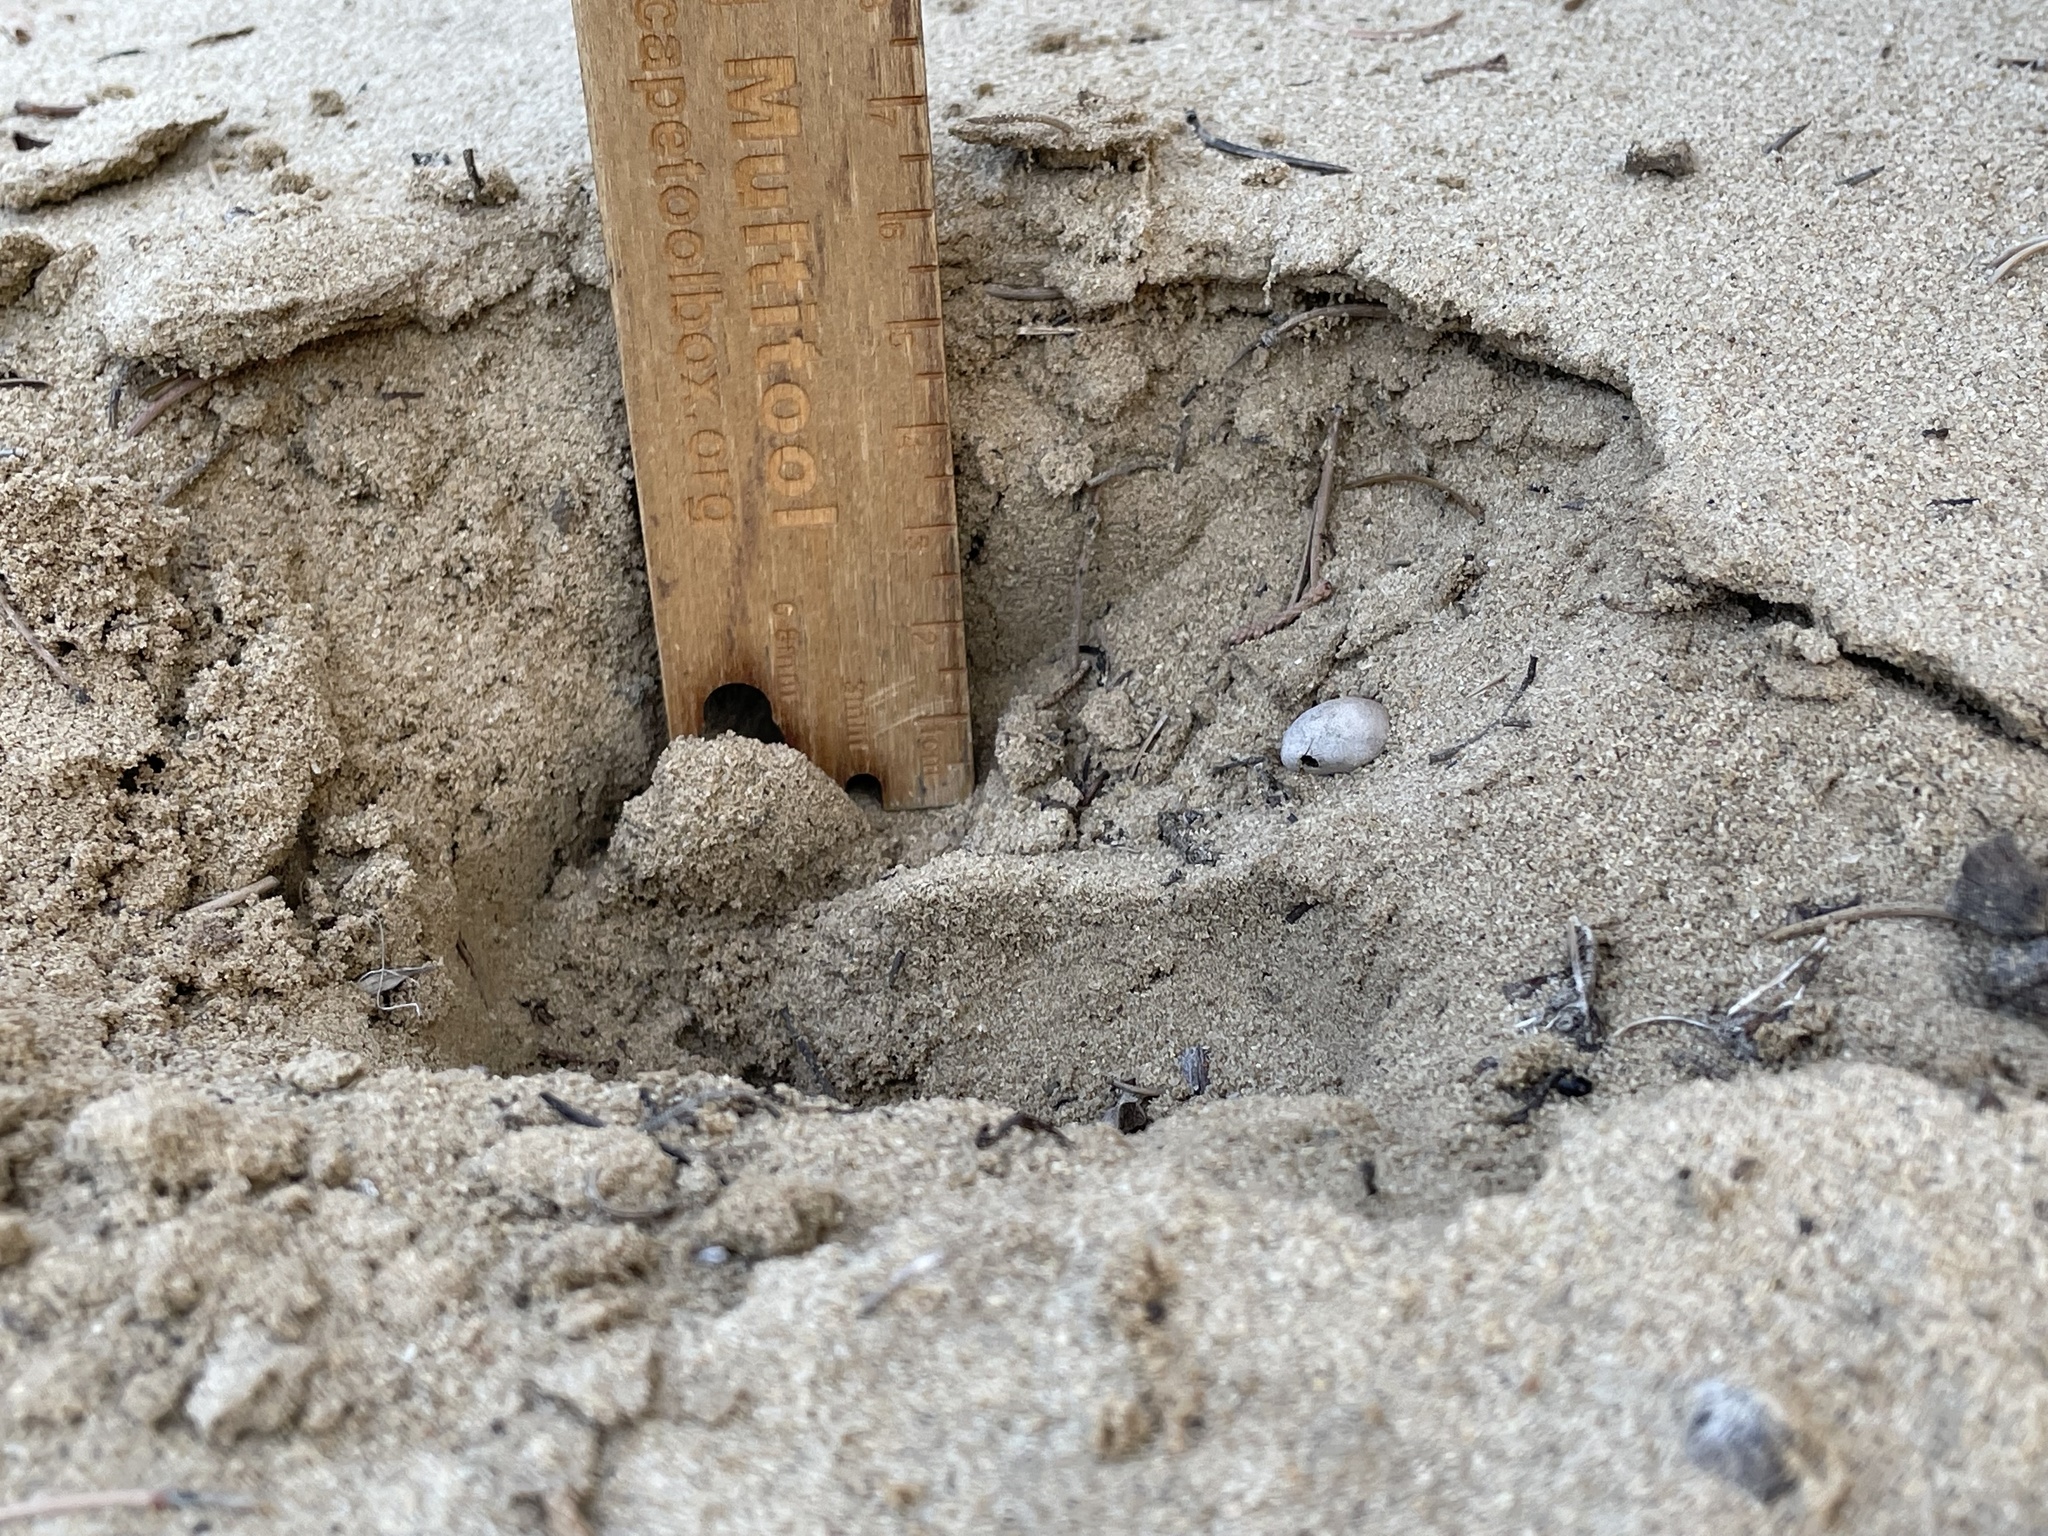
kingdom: Animalia
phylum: Chordata
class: Mammalia
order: Artiodactyla
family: Cervidae
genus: Cervus
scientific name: Cervus elaphus
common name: Red deer
